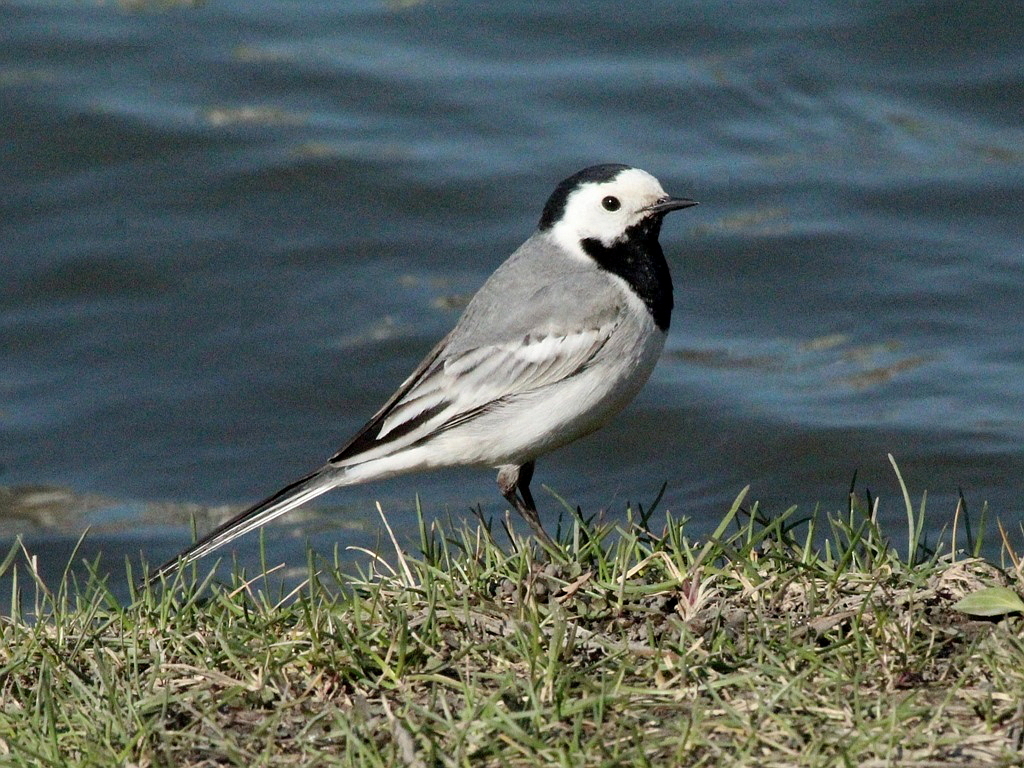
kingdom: Animalia
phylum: Chordata
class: Aves
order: Passeriformes
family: Motacillidae
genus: Motacilla
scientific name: Motacilla alba
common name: White wagtail
